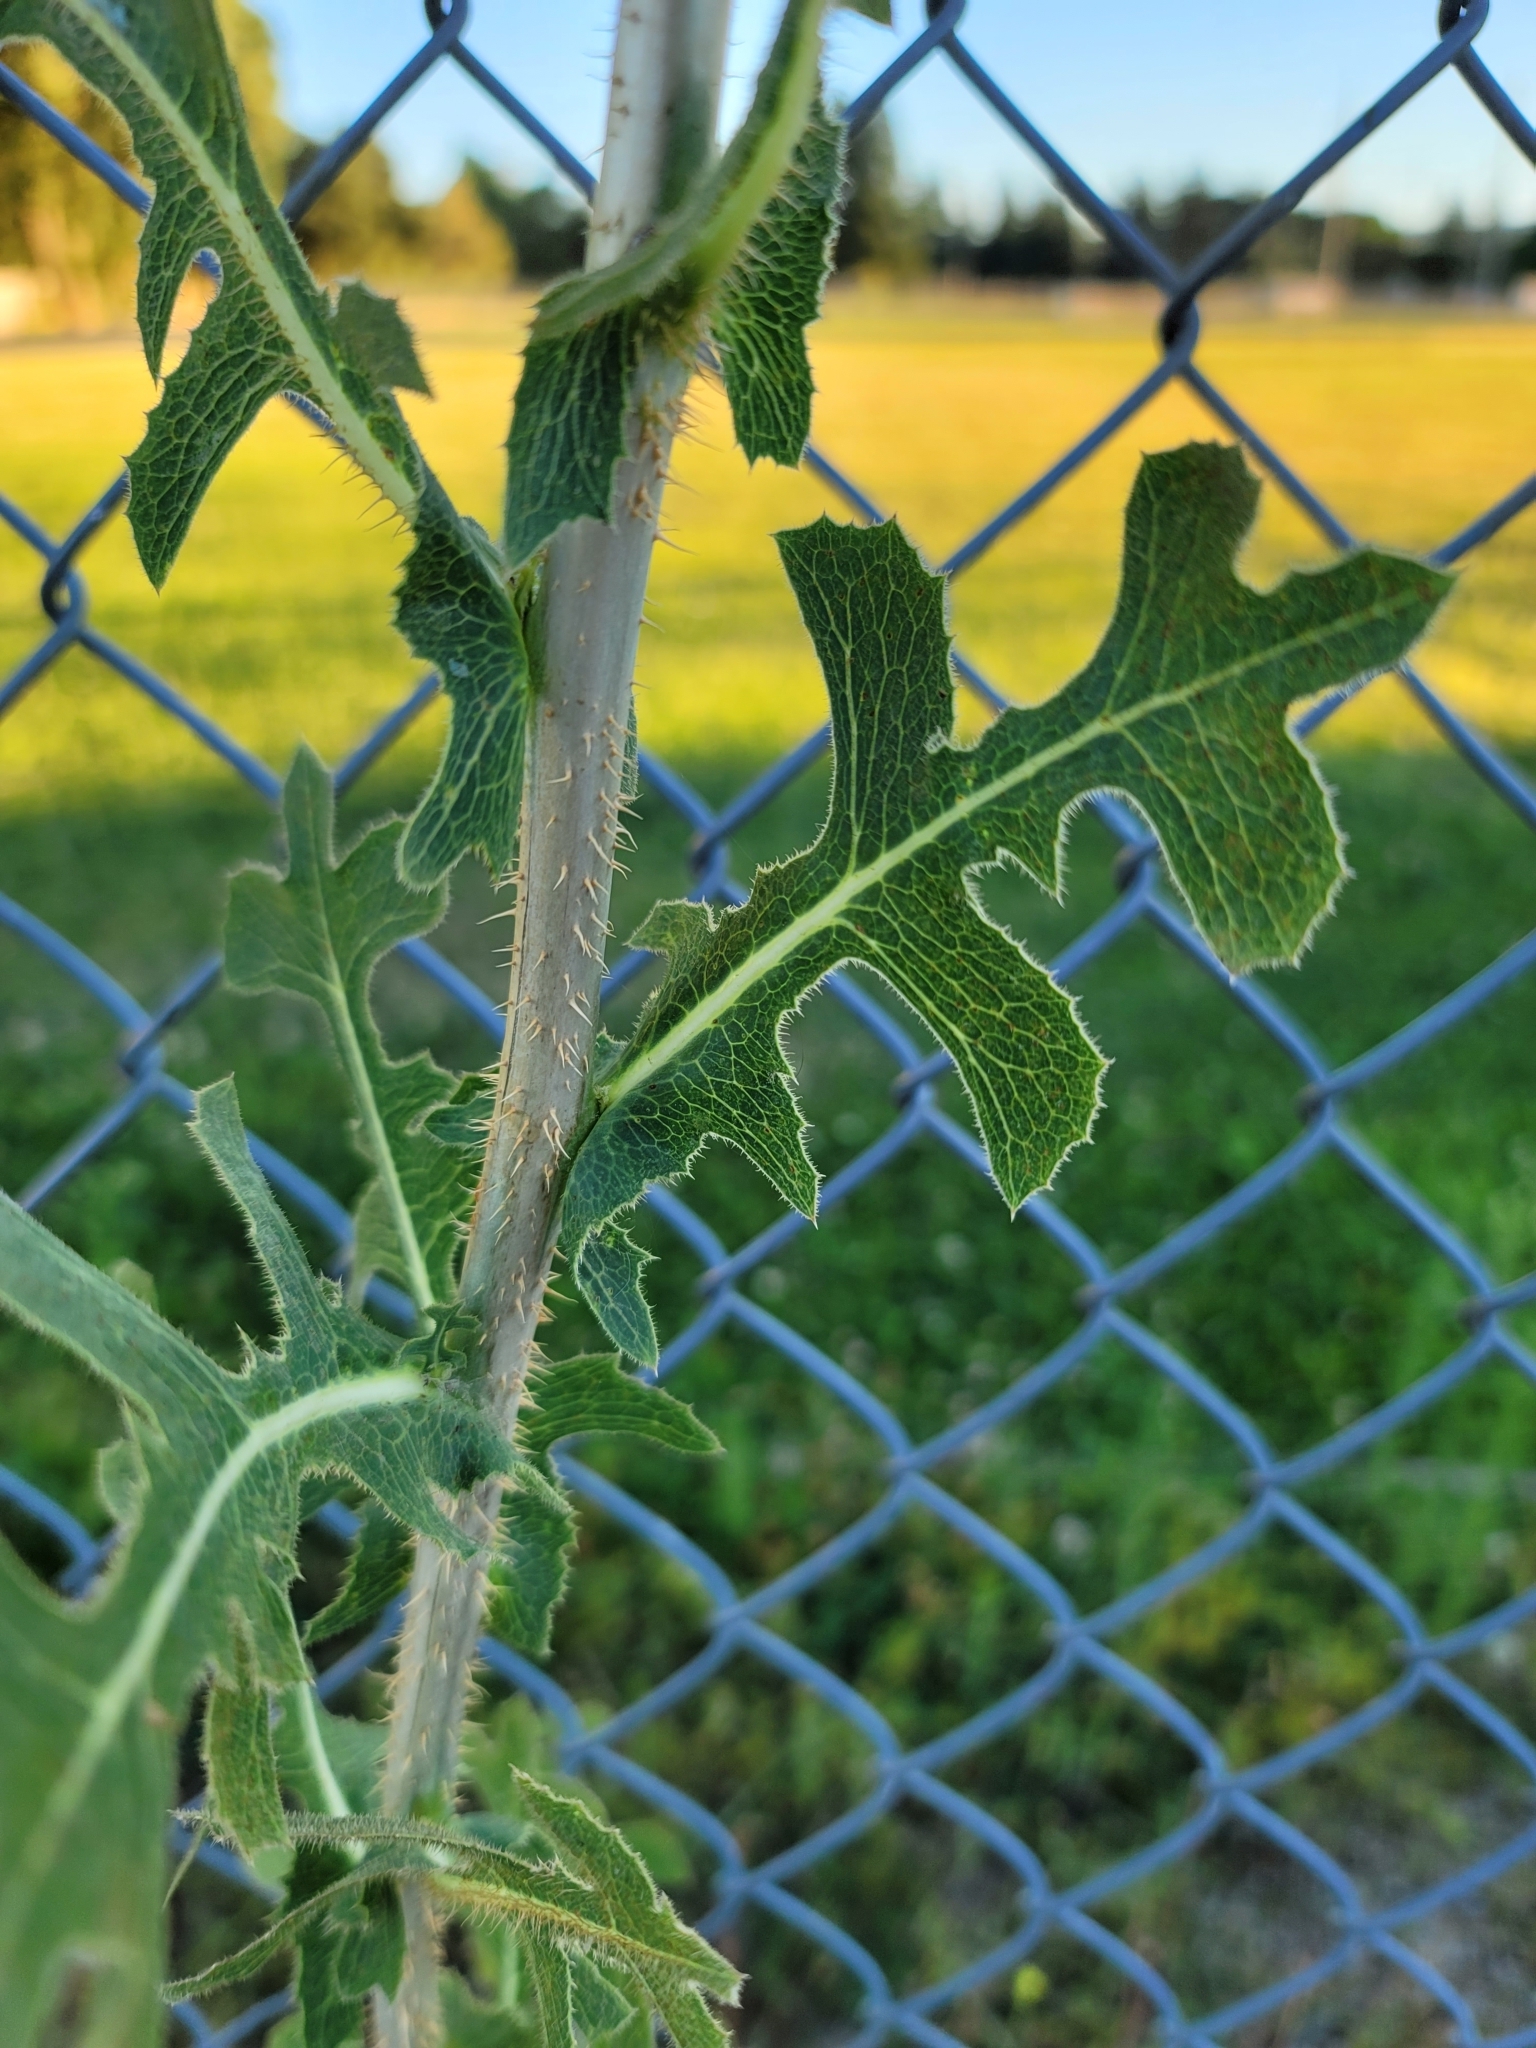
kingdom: Plantae
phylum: Tracheophyta
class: Magnoliopsida
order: Asterales
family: Asteraceae
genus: Lactuca
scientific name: Lactuca serriola
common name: Prickly lettuce
